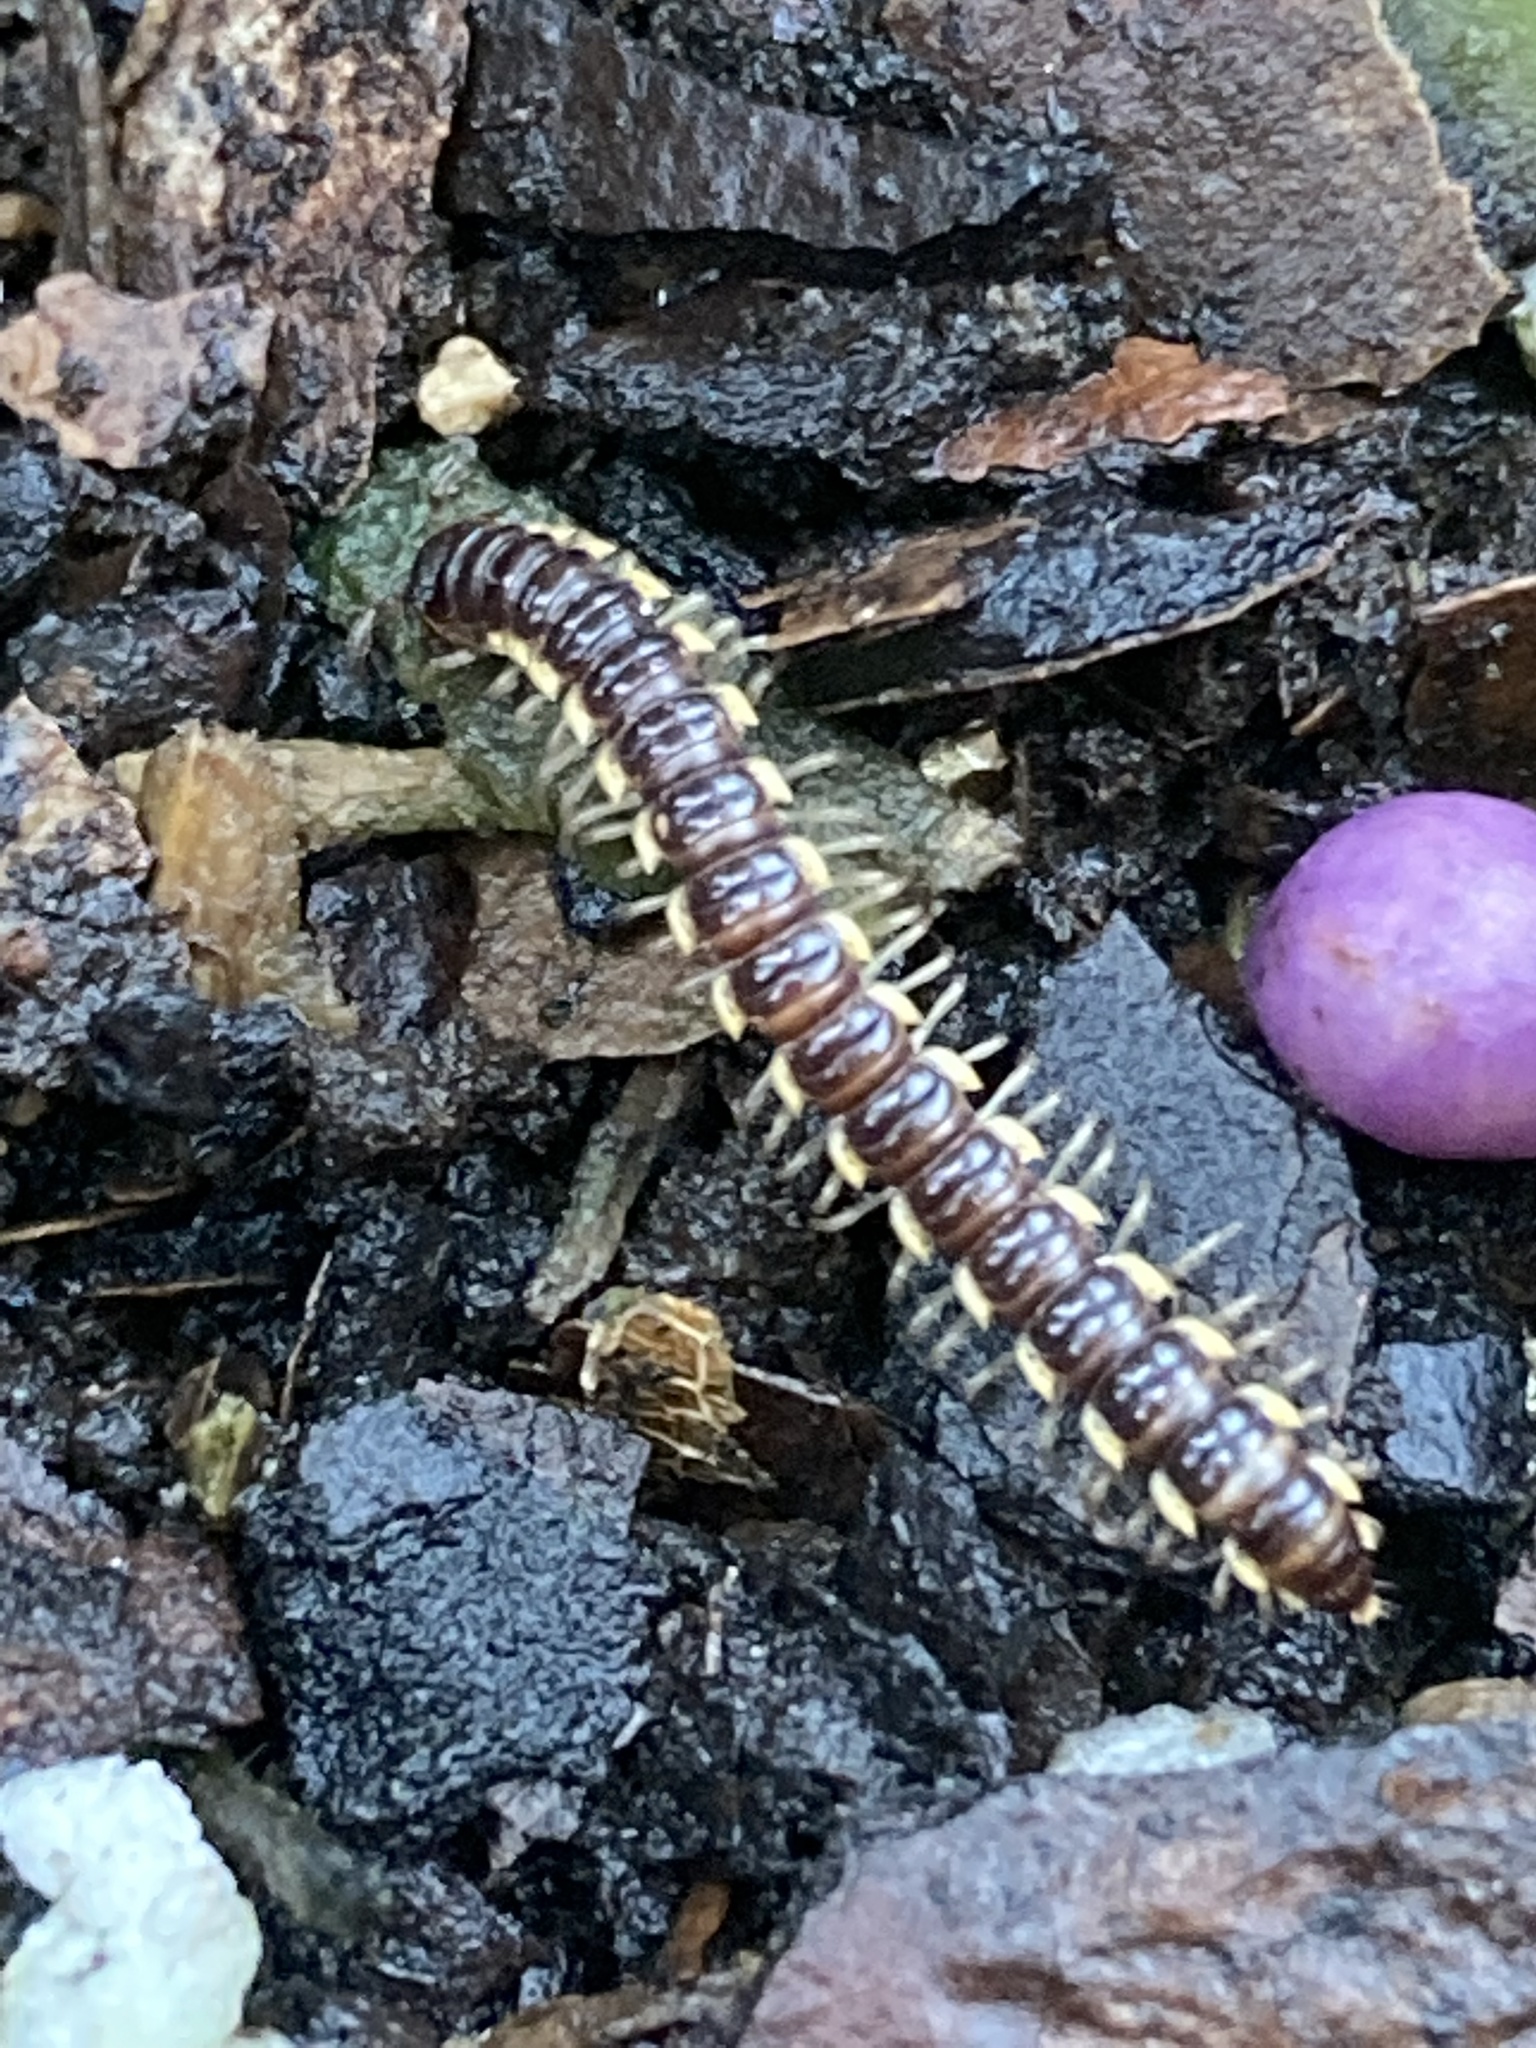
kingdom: Animalia
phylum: Arthropoda
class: Diplopoda
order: Polydesmida
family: Paradoxosomatidae
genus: Orthomorpha
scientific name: Orthomorpha coarctata
